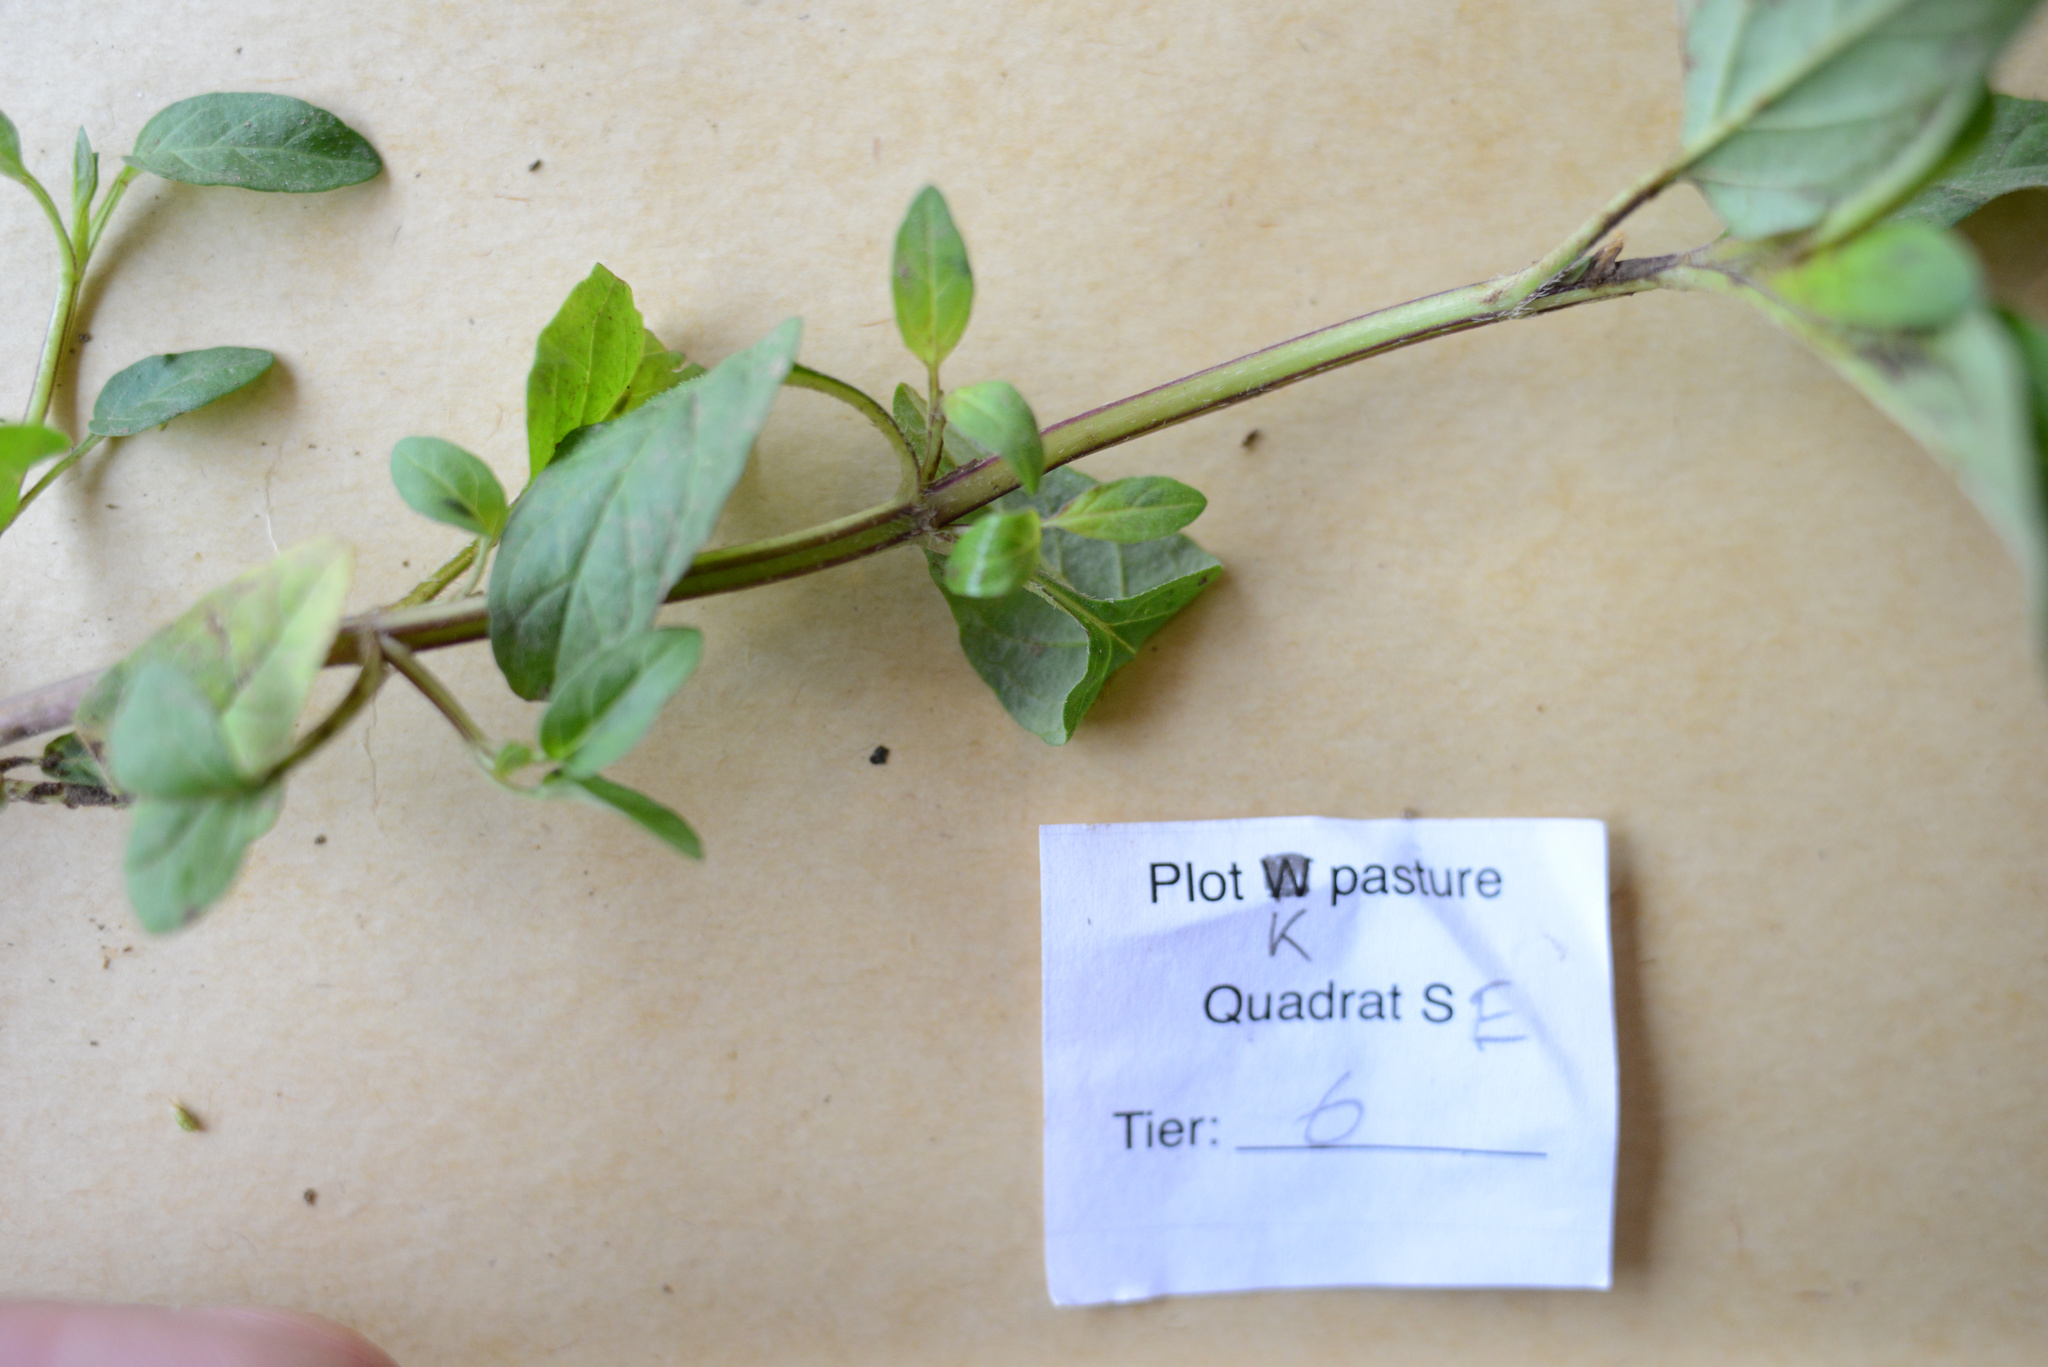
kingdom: Plantae
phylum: Tracheophyta
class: Magnoliopsida
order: Lamiales
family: Lamiaceae
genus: Prunella
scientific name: Prunella vulgaris
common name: Heal-all
